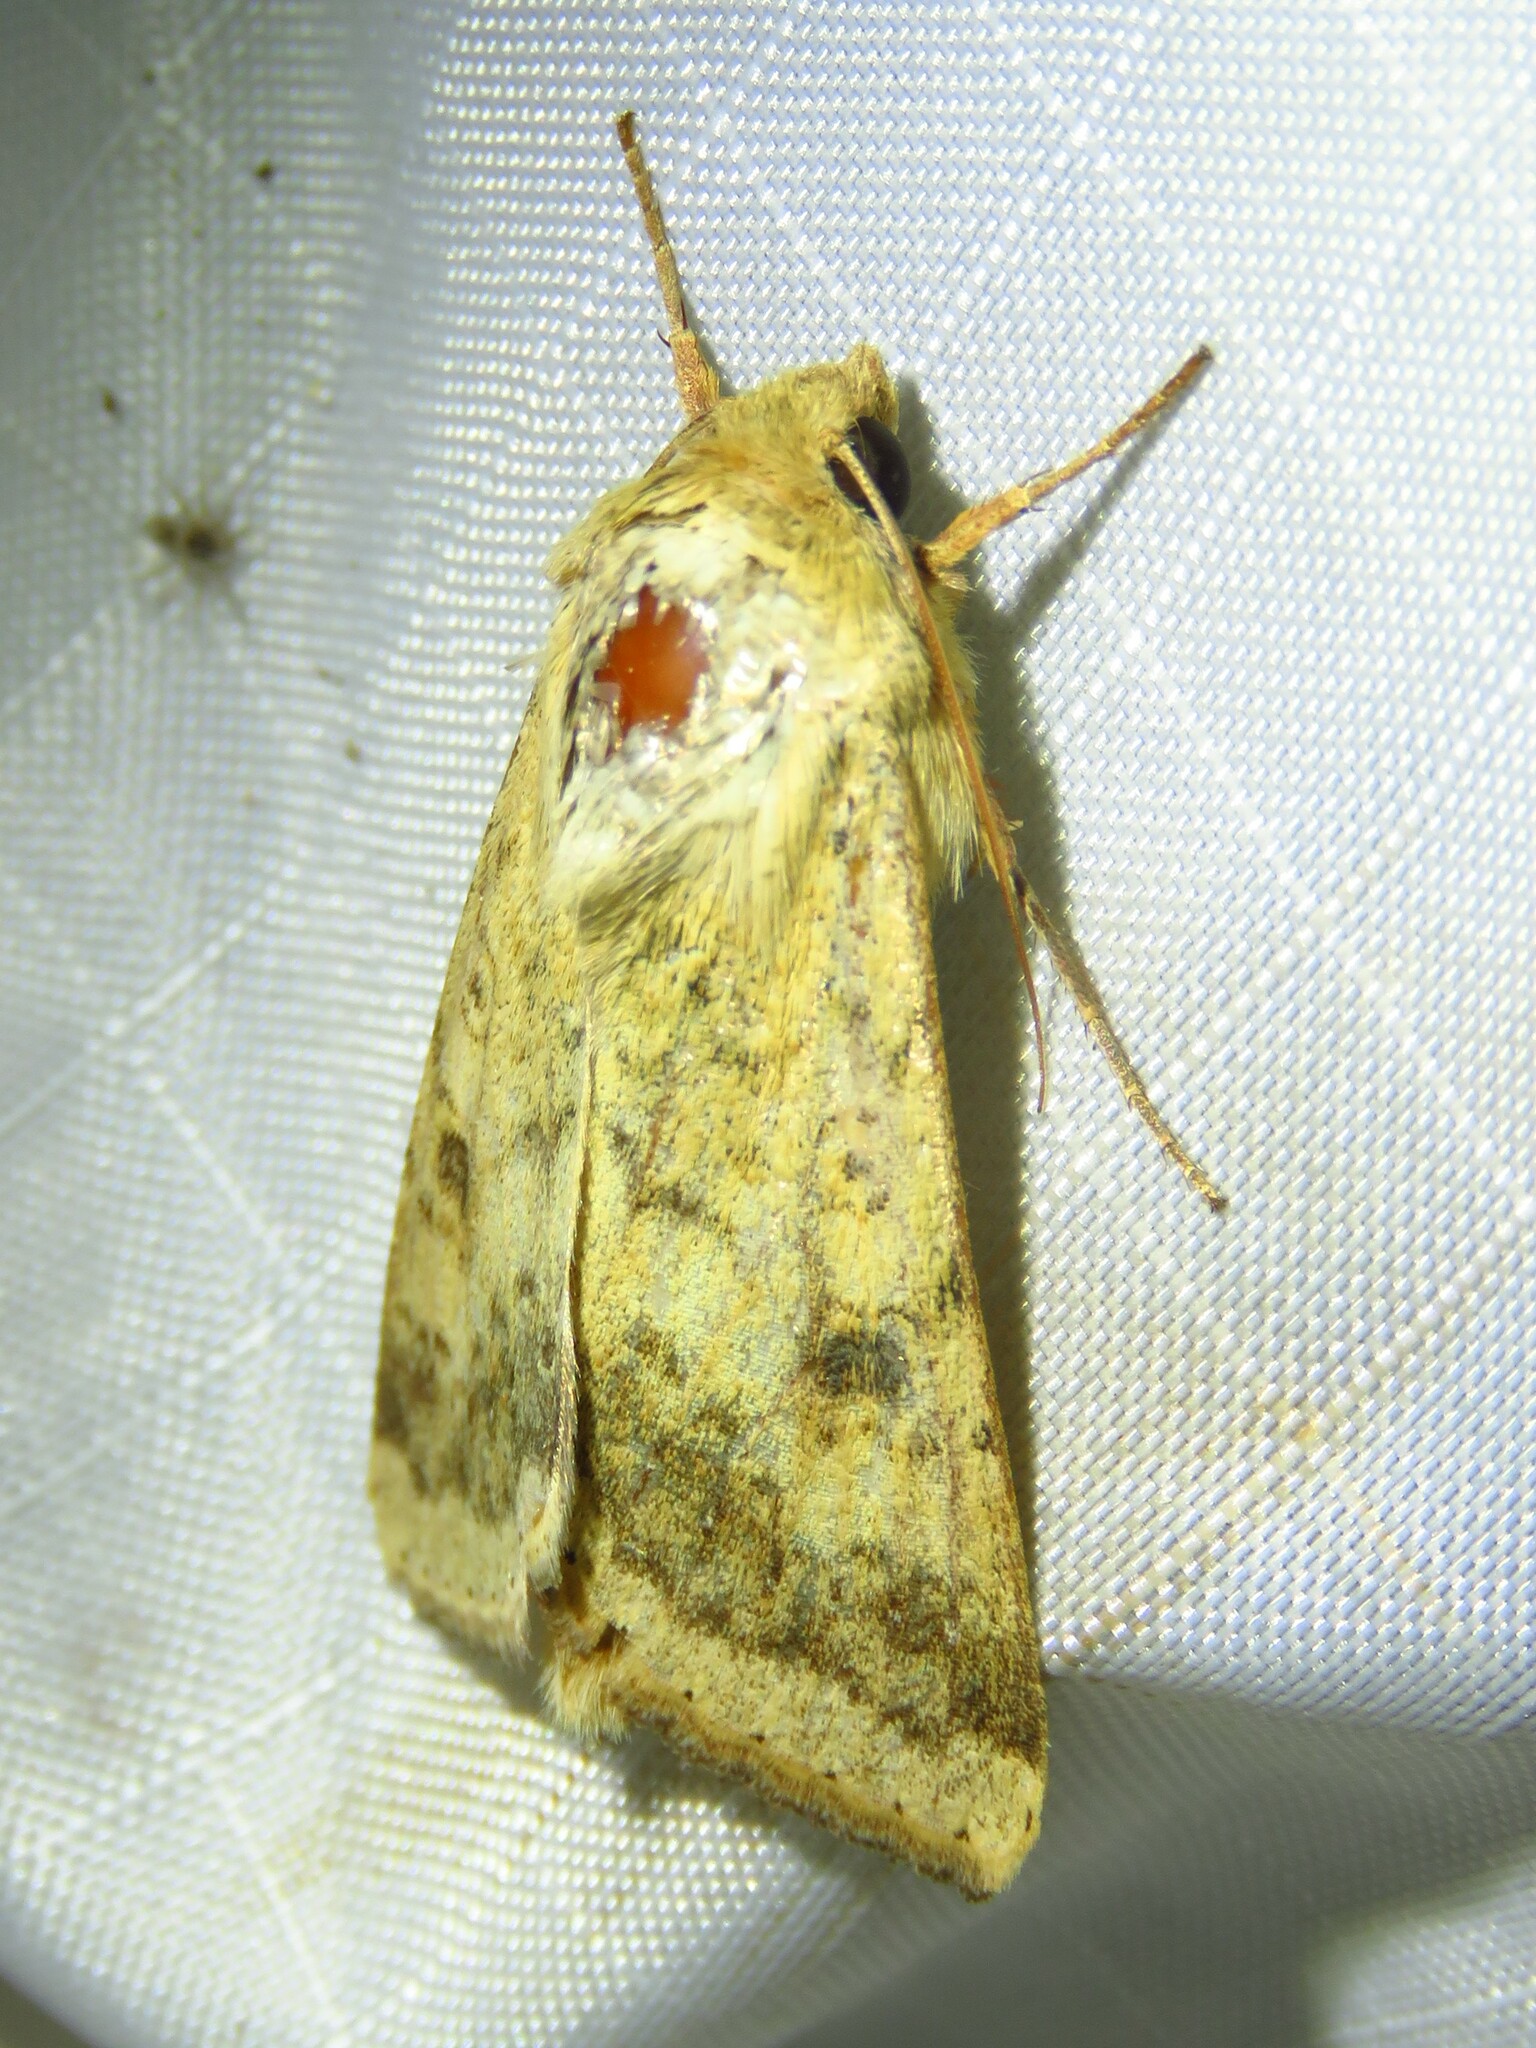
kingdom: Animalia
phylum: Arthropoda
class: Insecta
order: Lepidoptera
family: Noctuidae
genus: Helicoverpa
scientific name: Helicoverpa zea
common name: Bollworm
